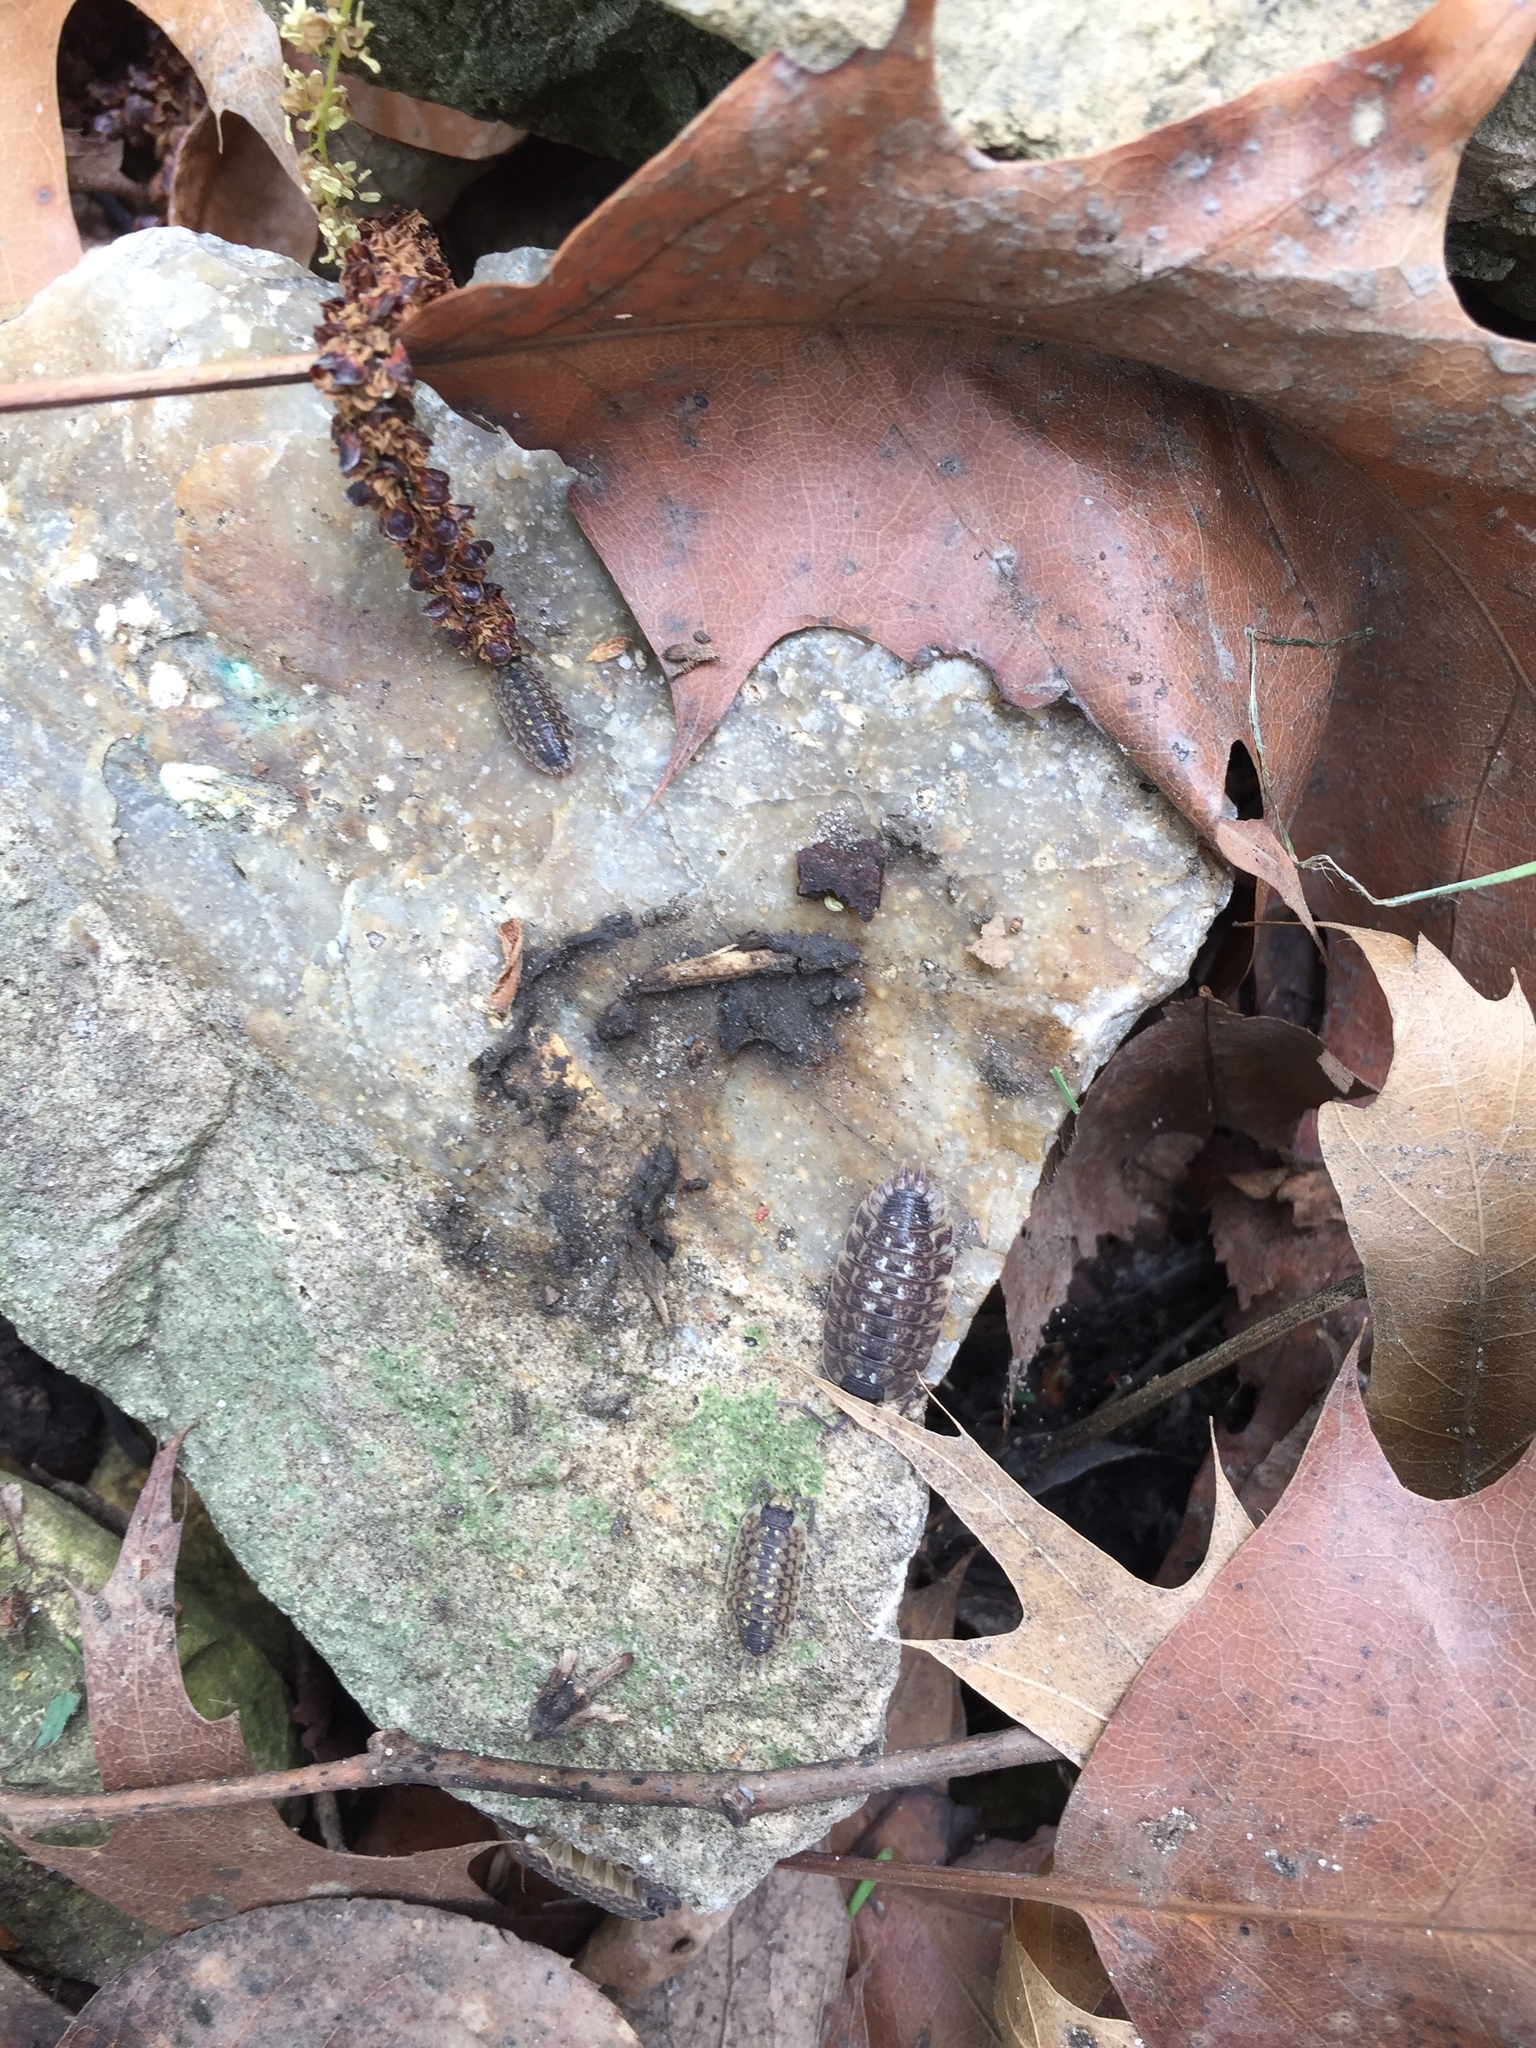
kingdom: Animalia
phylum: Arthropoda
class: Malacostraca
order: Isopoda
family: Porcellionidae
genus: Porcellio
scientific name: Porcellio spinicornis
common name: Painted woodlouse
